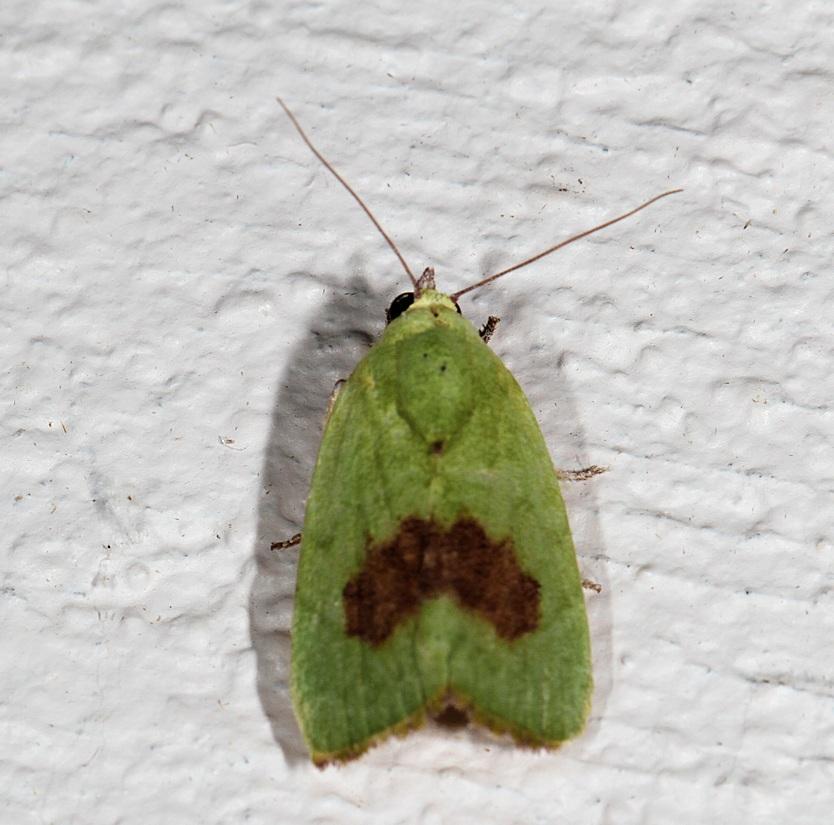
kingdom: Animalia
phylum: Arthropoda
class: Insecta
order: Lepidoptera
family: Nolidae
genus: Earias
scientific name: Earias biplaga
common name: Spiny bollworm
